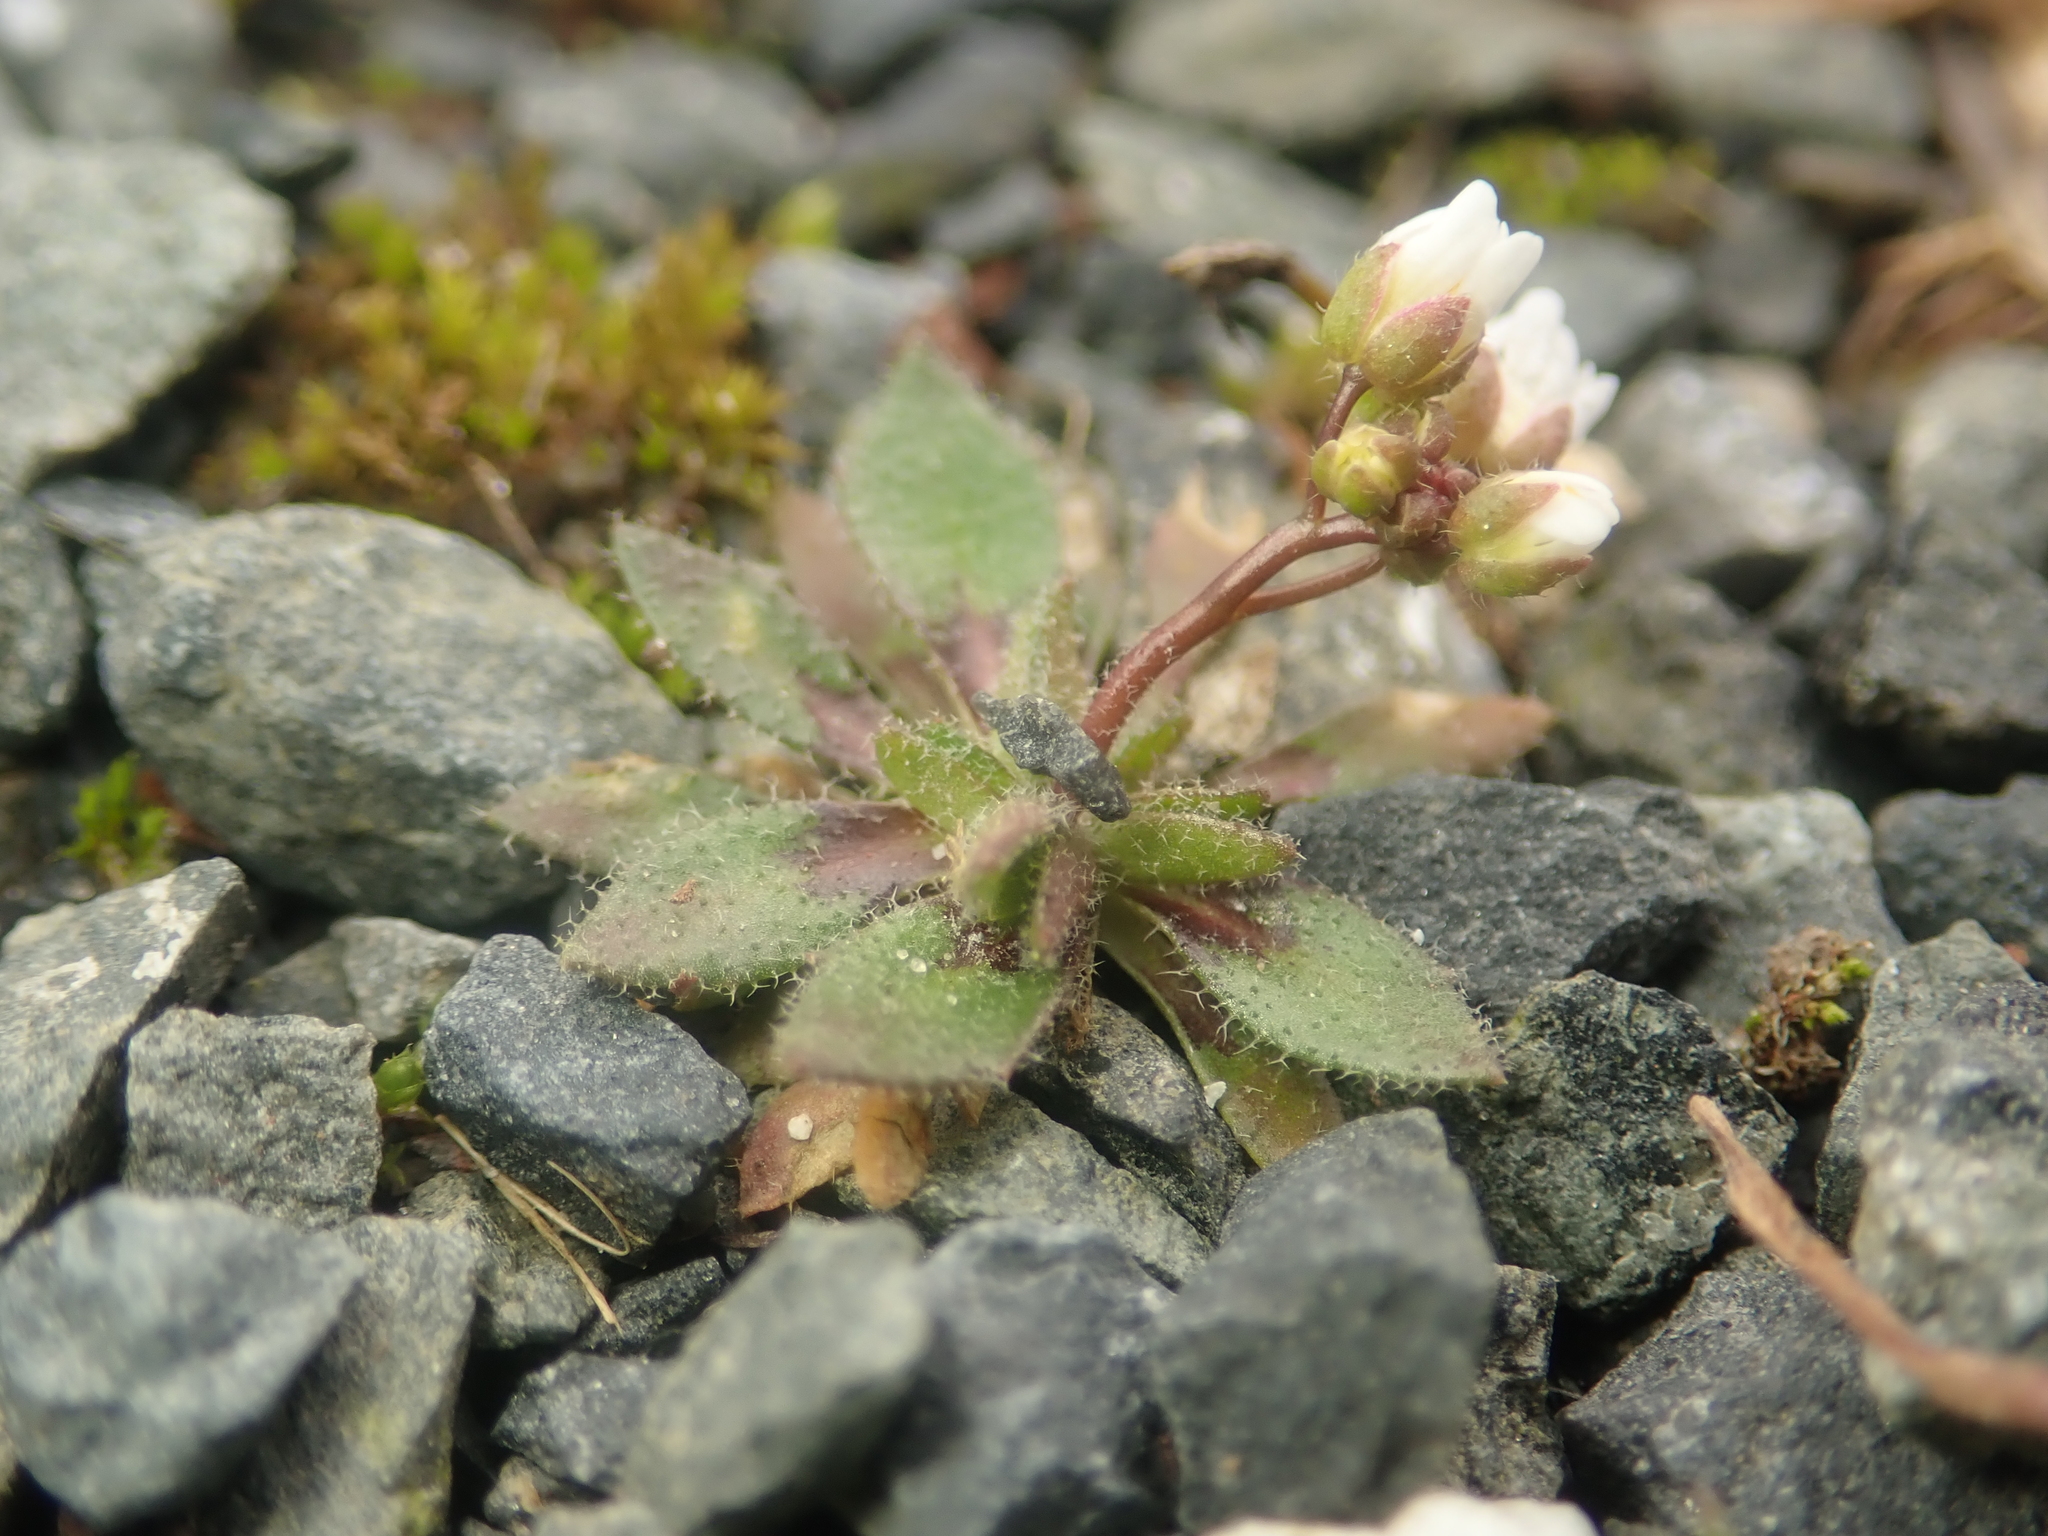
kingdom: Plantae
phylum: Tracheophyta
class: Magnoliopsida
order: Brassicales
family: Brassicaceae
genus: Draba
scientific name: Draba verna
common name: Spring draba
